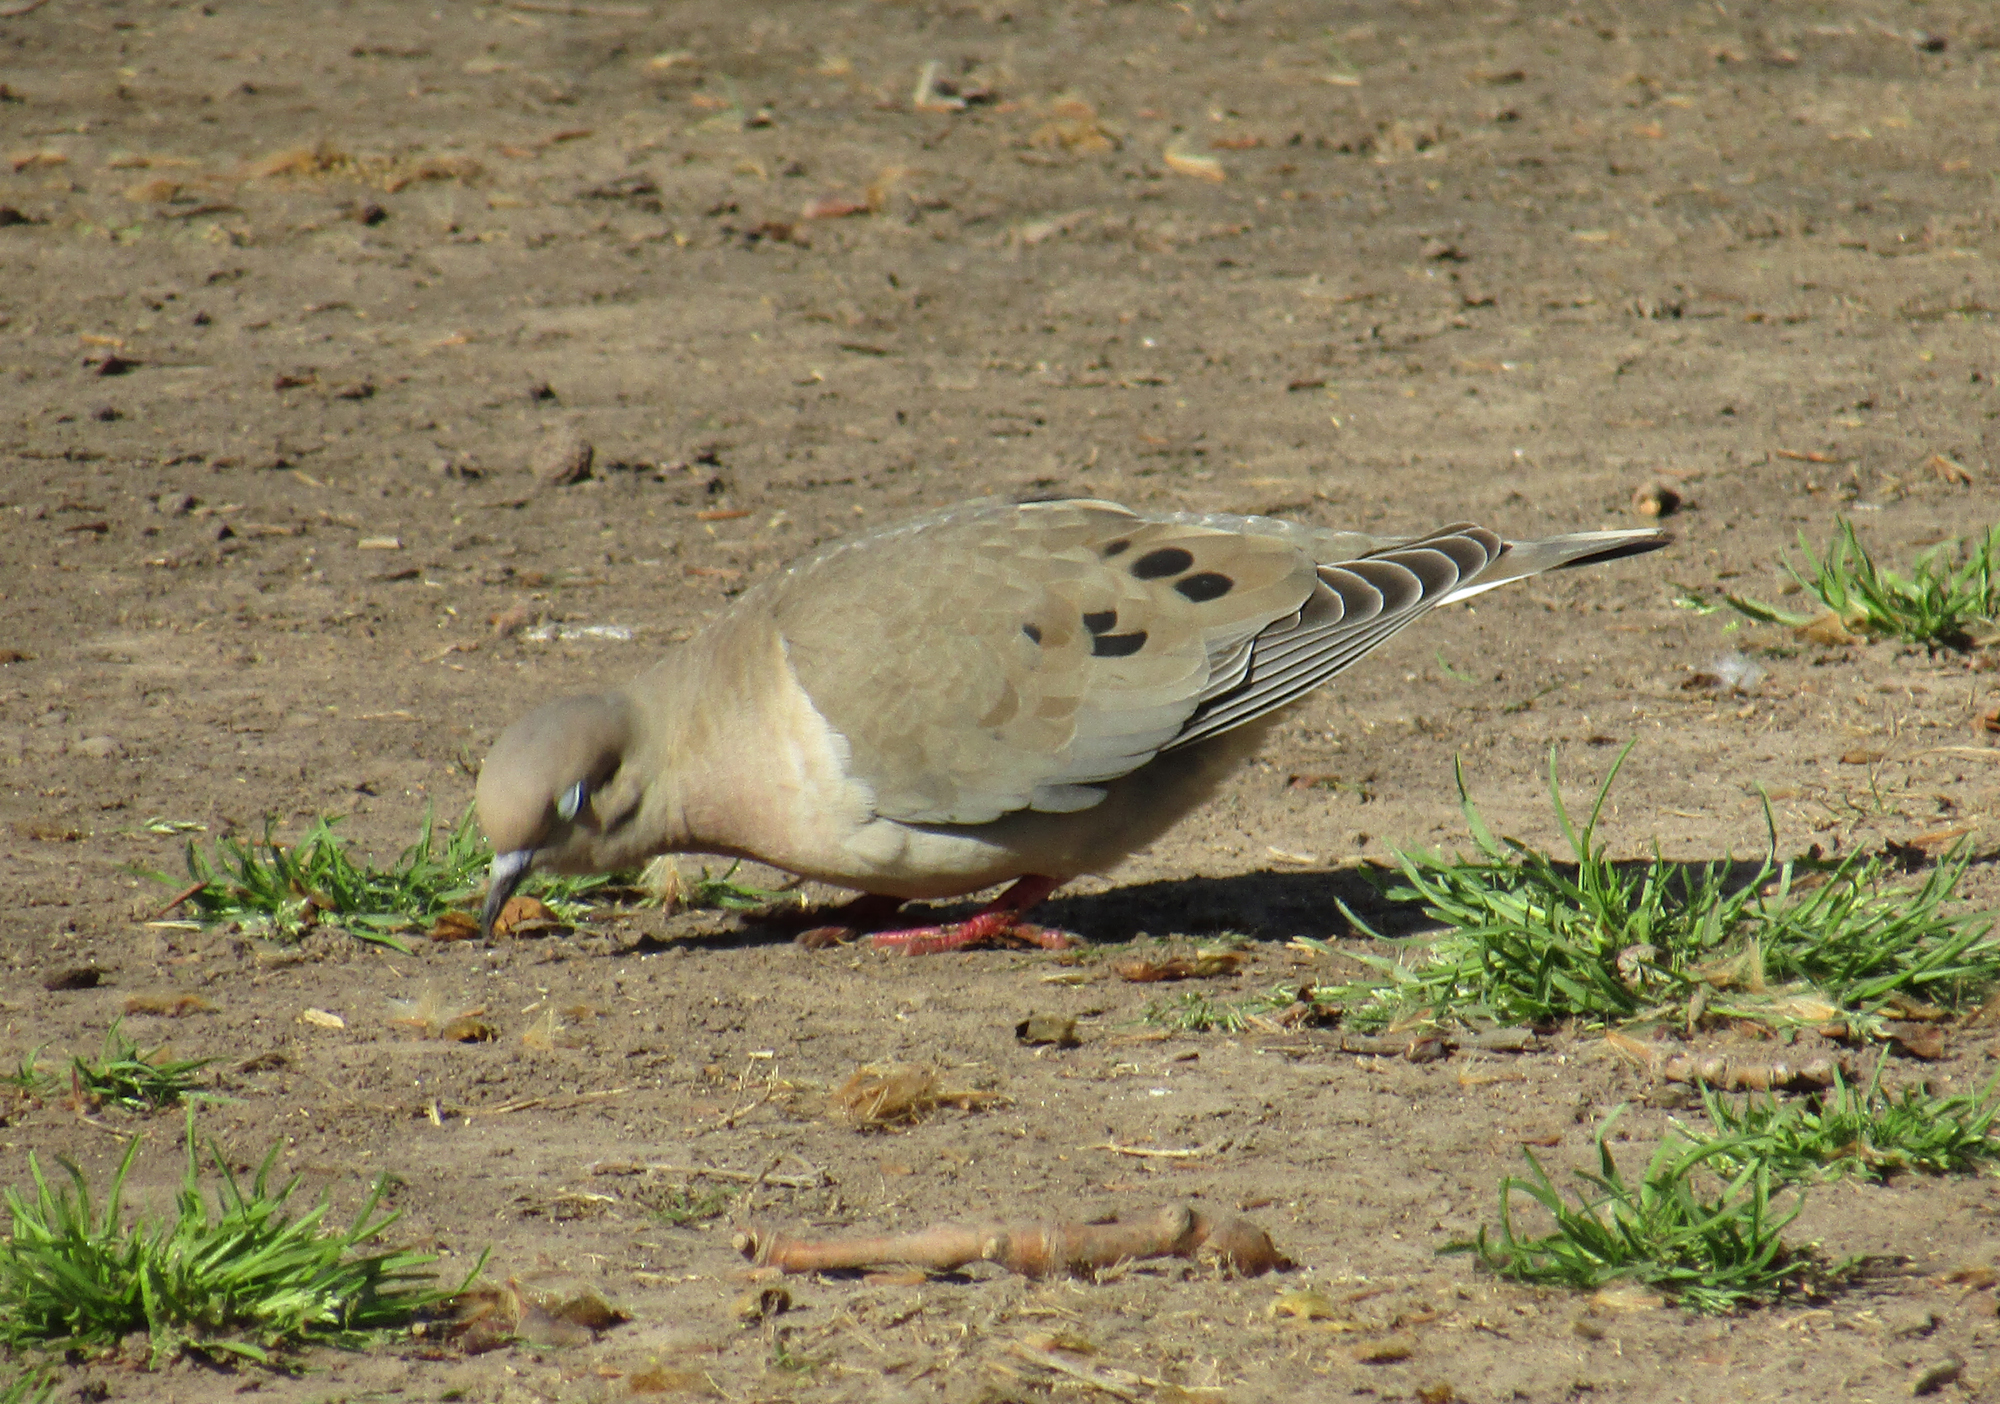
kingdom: Animalia
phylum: Chordata
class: Aves
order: Columbiformes
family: Columbidae
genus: Zenaida
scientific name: Zenaida auriculata
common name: Eared dove
